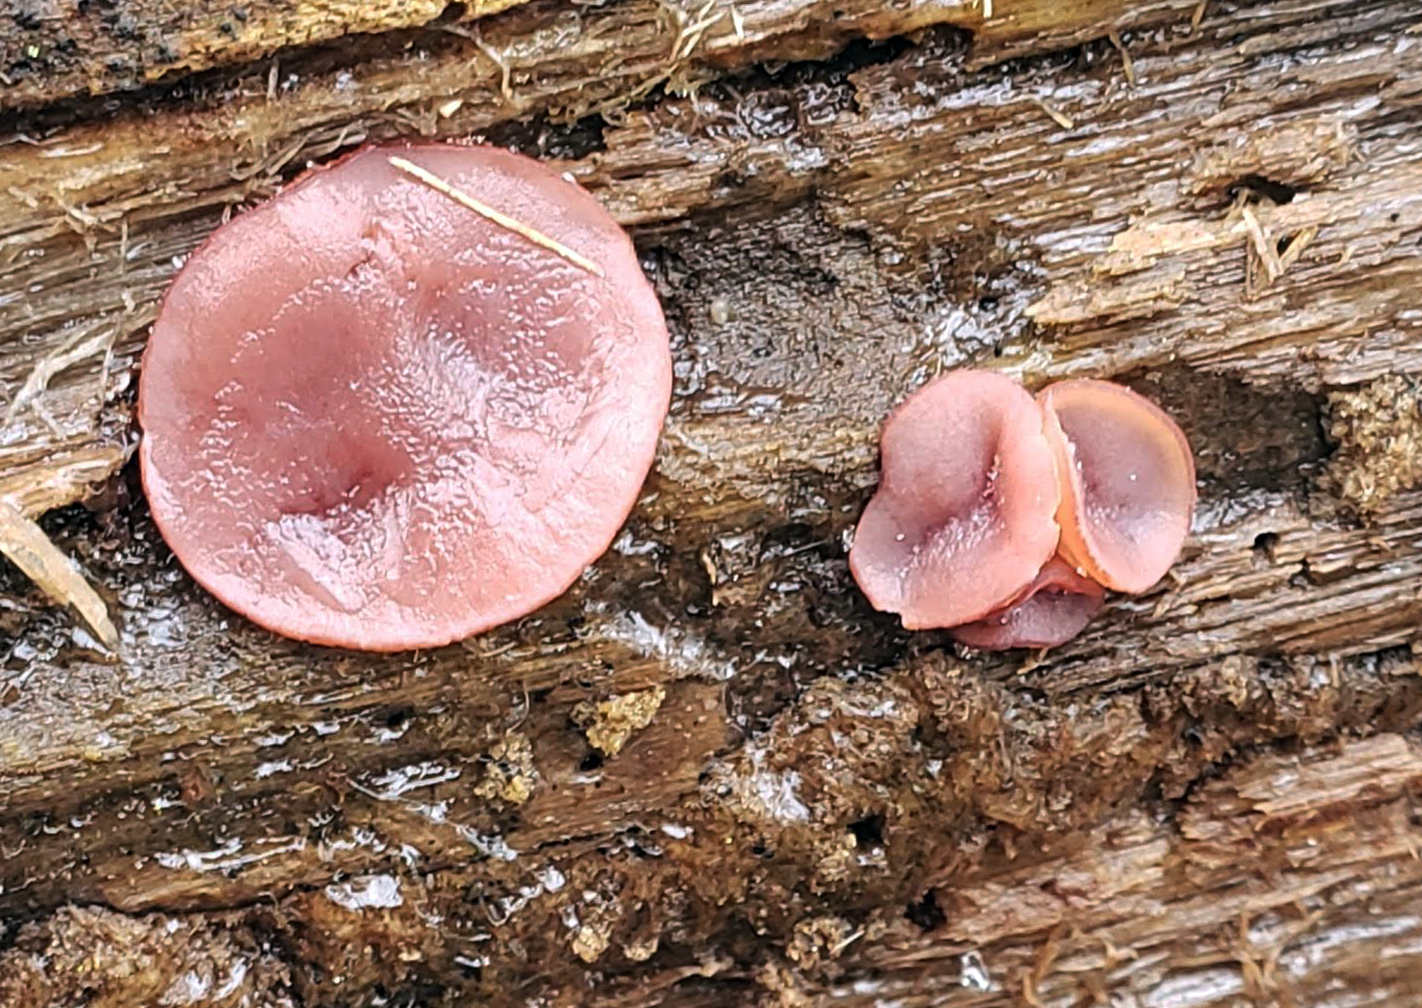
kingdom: Fungi
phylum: Ascomycota
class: Leotiomycetes
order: Helotiales
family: Gelatinodiscaceae
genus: Ascocoryne
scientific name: Ascocoryne
